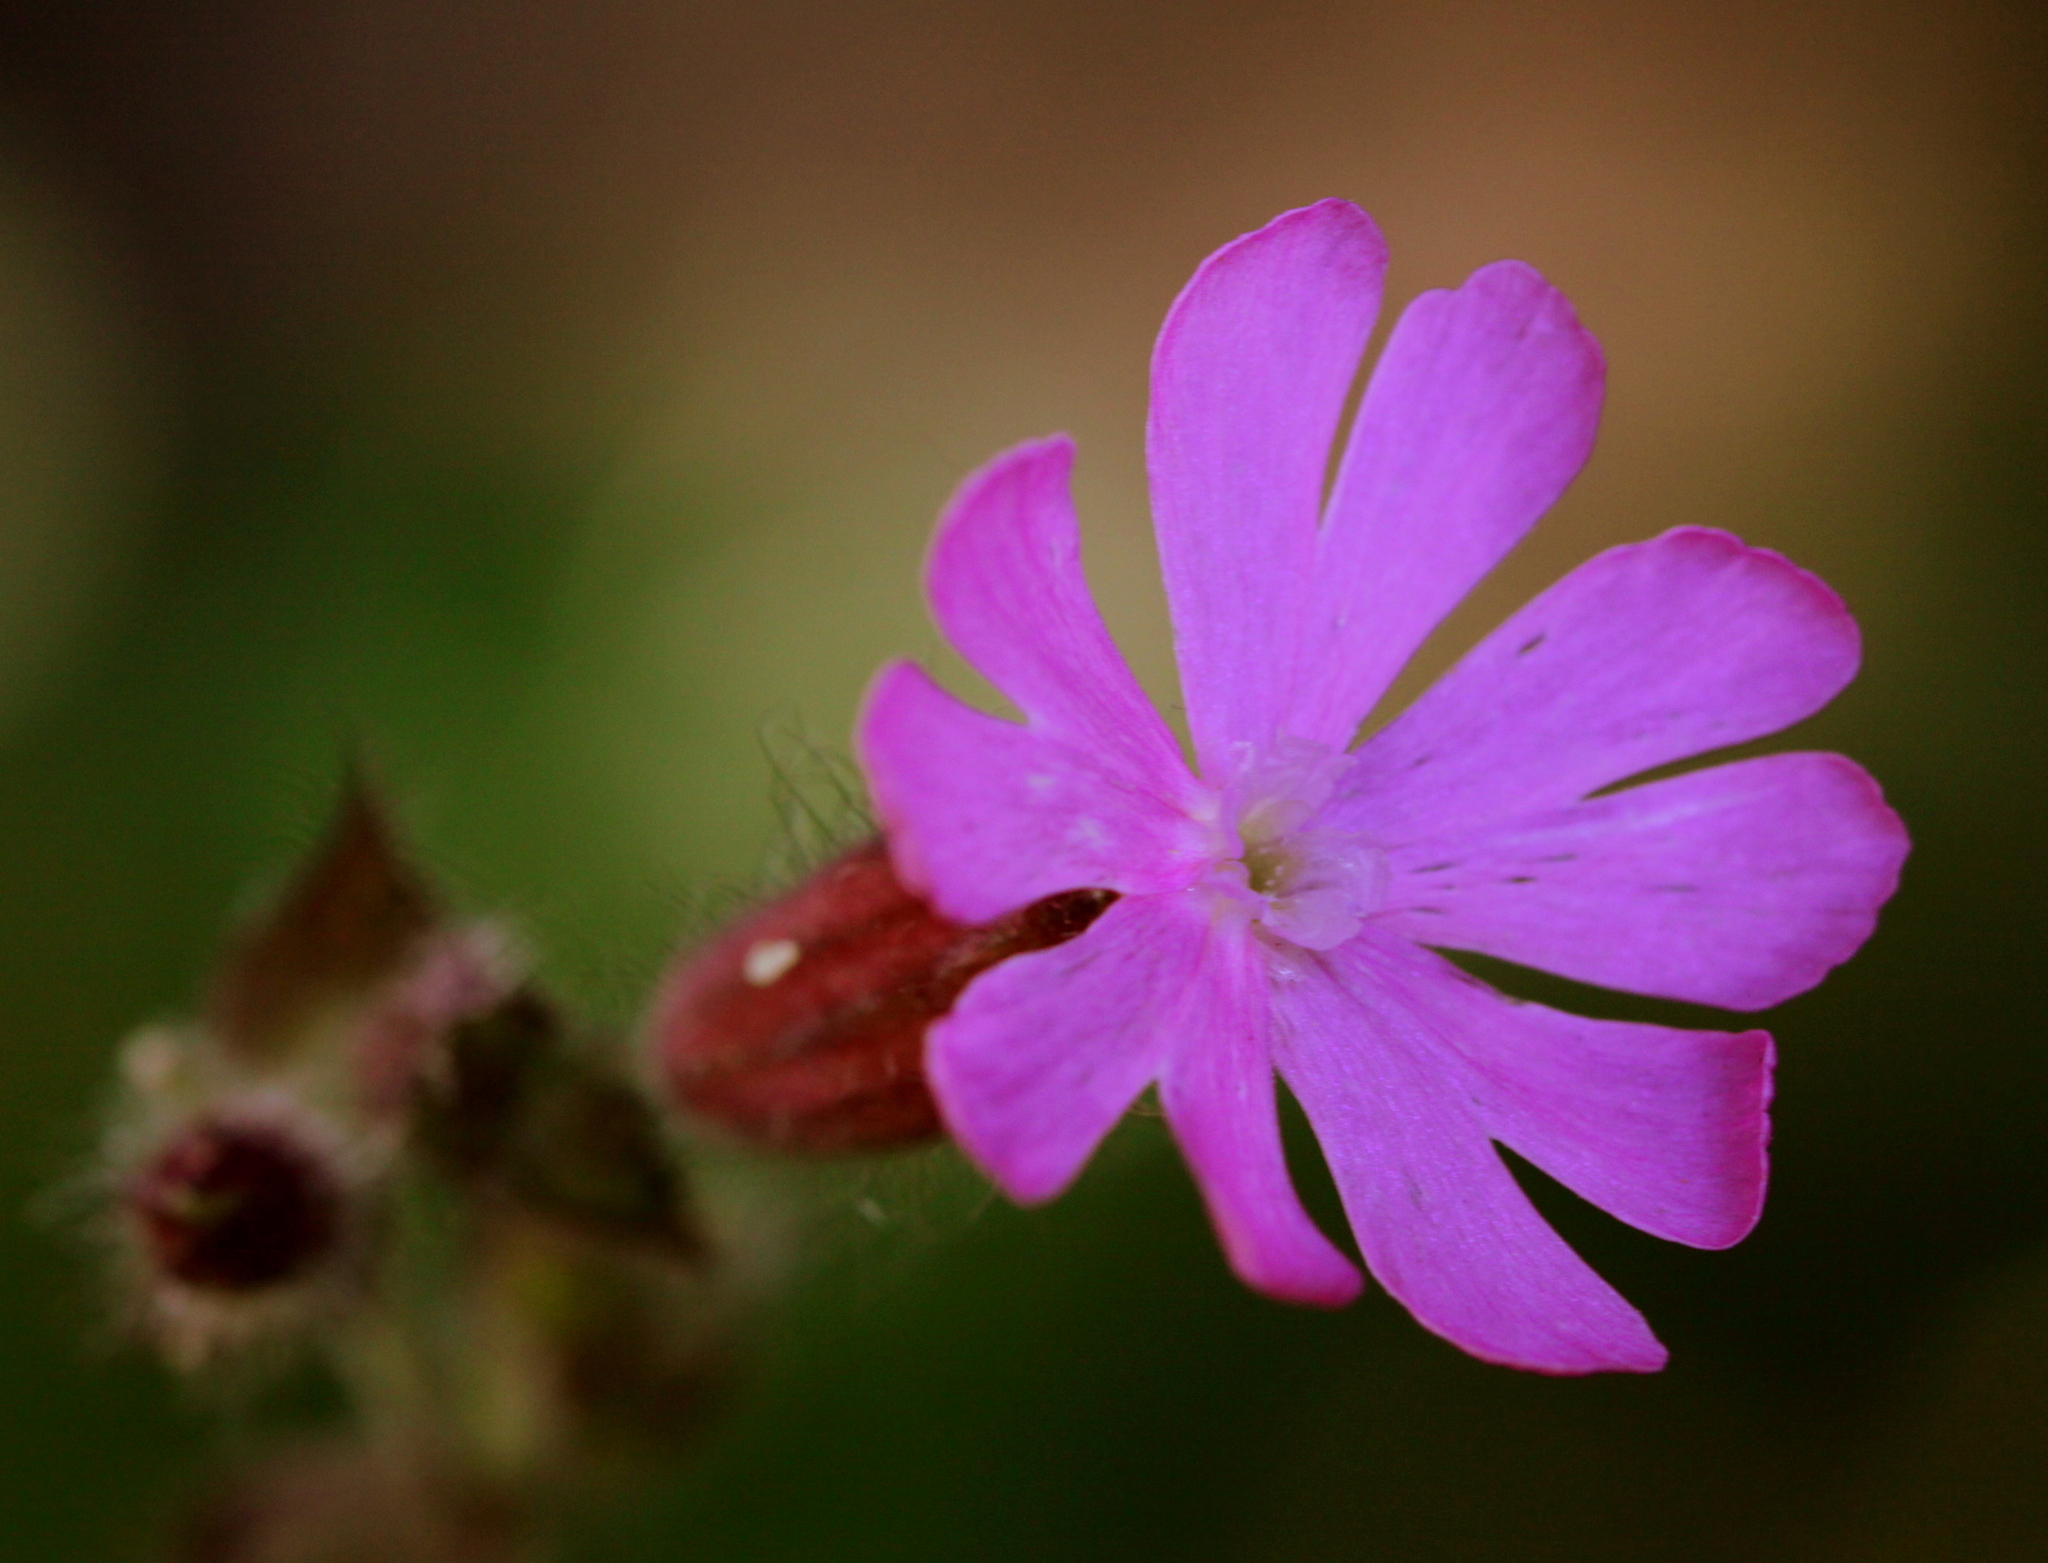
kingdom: Plantae
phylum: Tracheophyta
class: Magnoliopsida
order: Caryophyllales
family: Caryophyllaceae
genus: Silene
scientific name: Silene dioica
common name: Red campion
